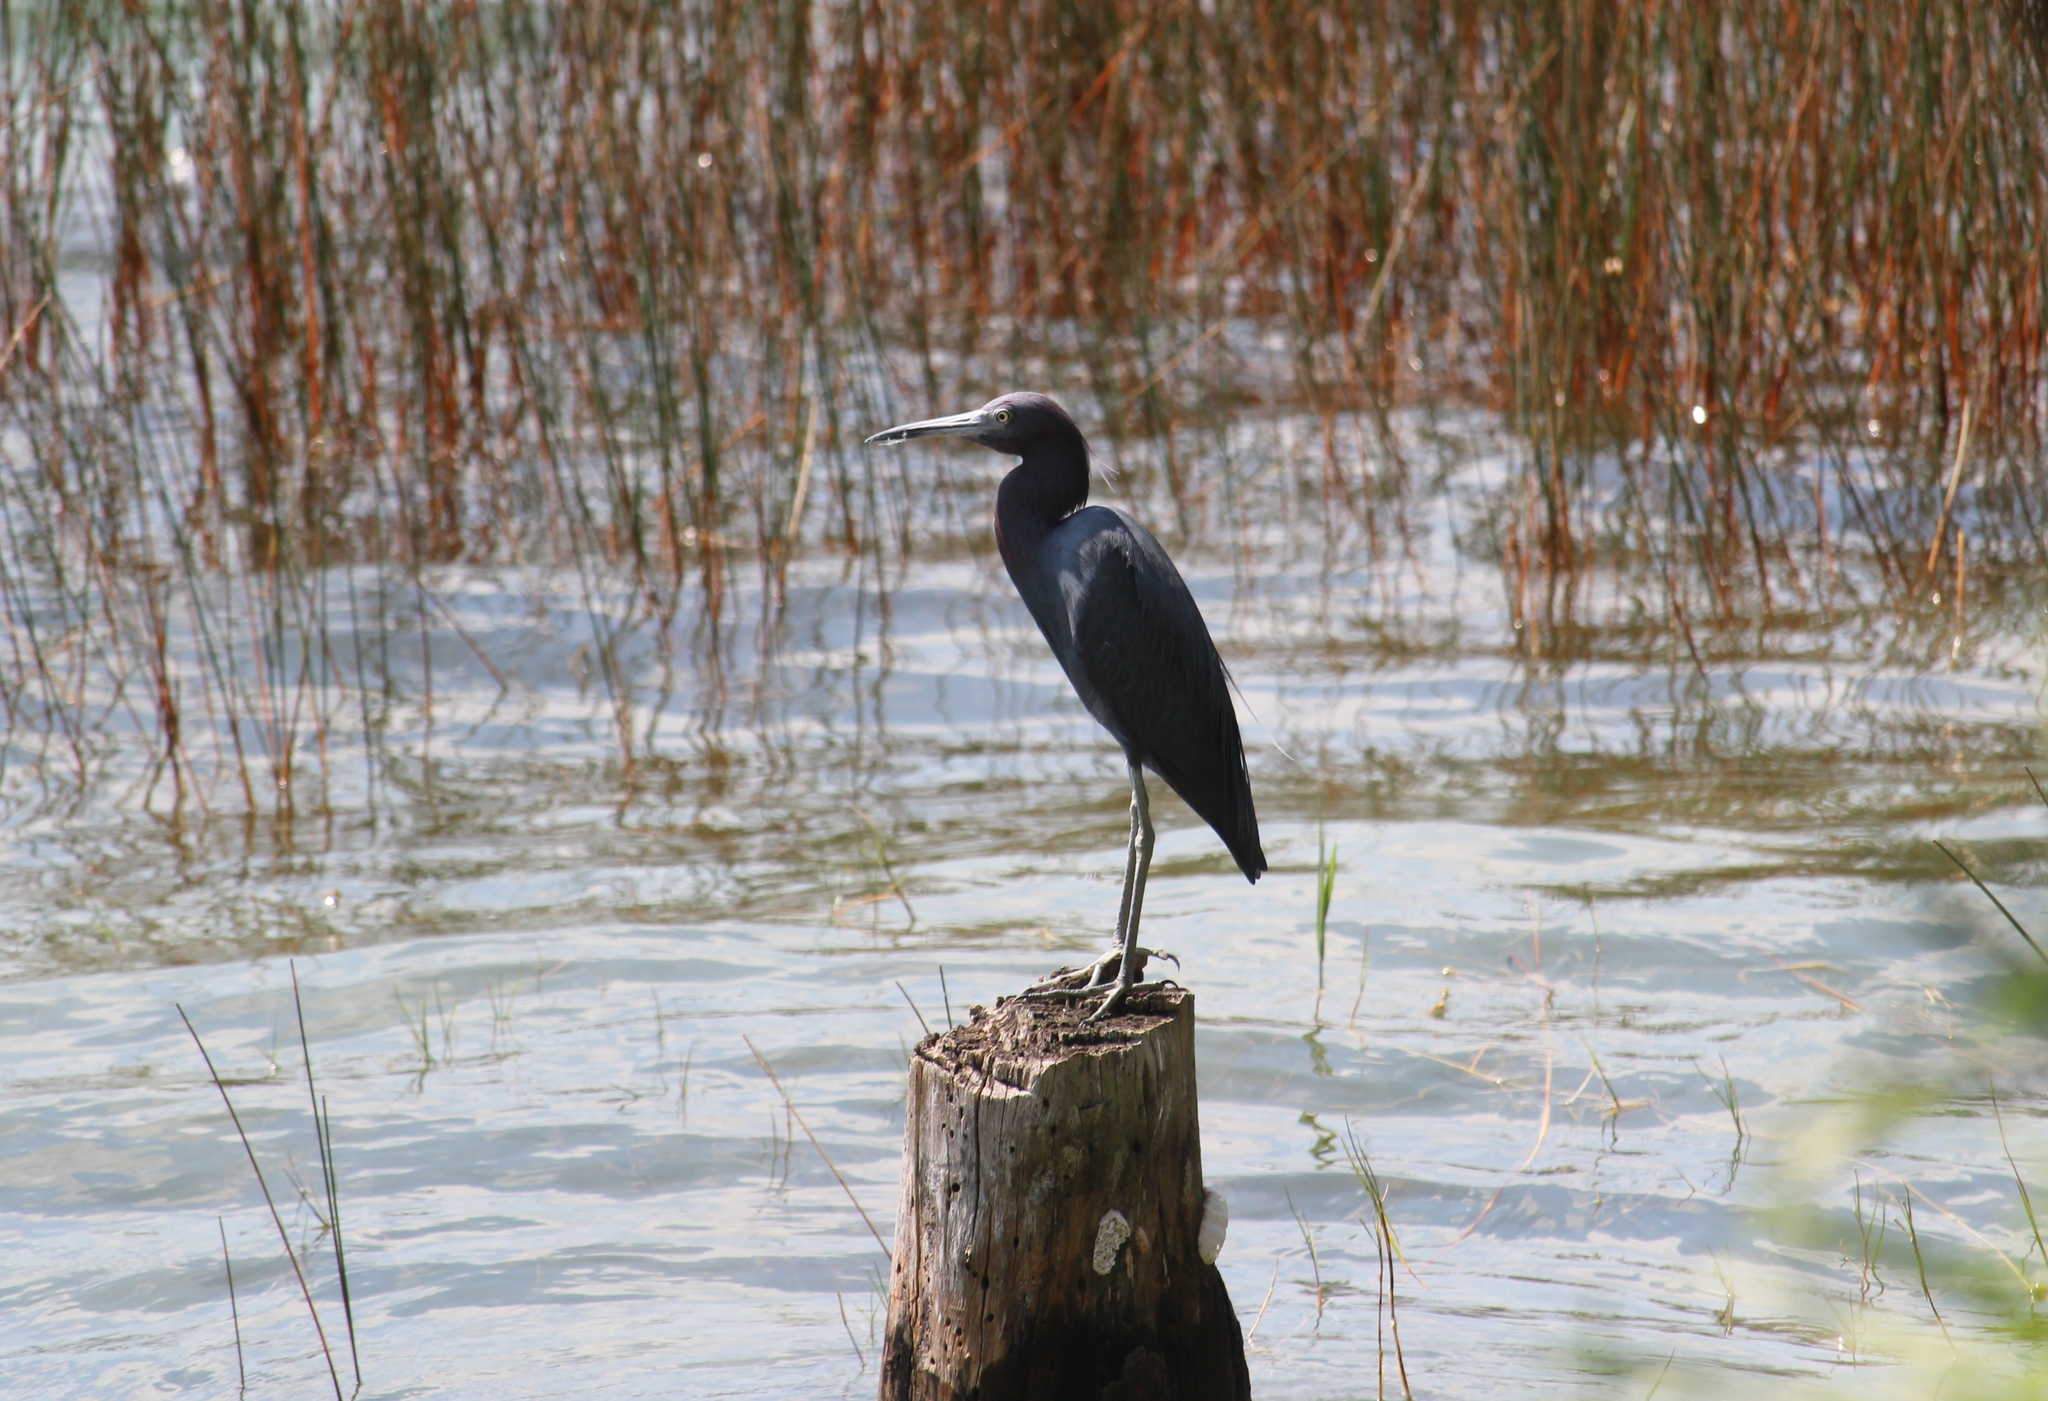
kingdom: Animalia
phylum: Chordata
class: Aves
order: Pelecaniformes
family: Ardeidae
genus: Egretta
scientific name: Egretta caerulea
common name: Little blue heron
